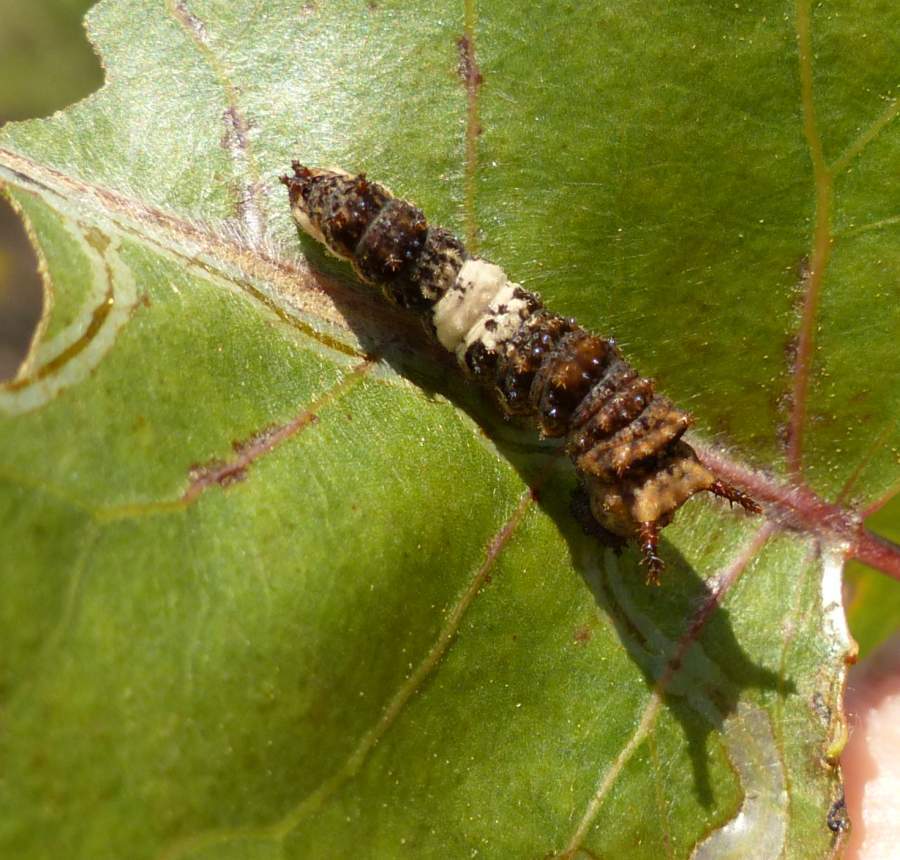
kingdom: Animalia
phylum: Arthropoda
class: Insecta
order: Lepidoptera
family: Nymphalidae
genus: Limenitis
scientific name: Limenitis
